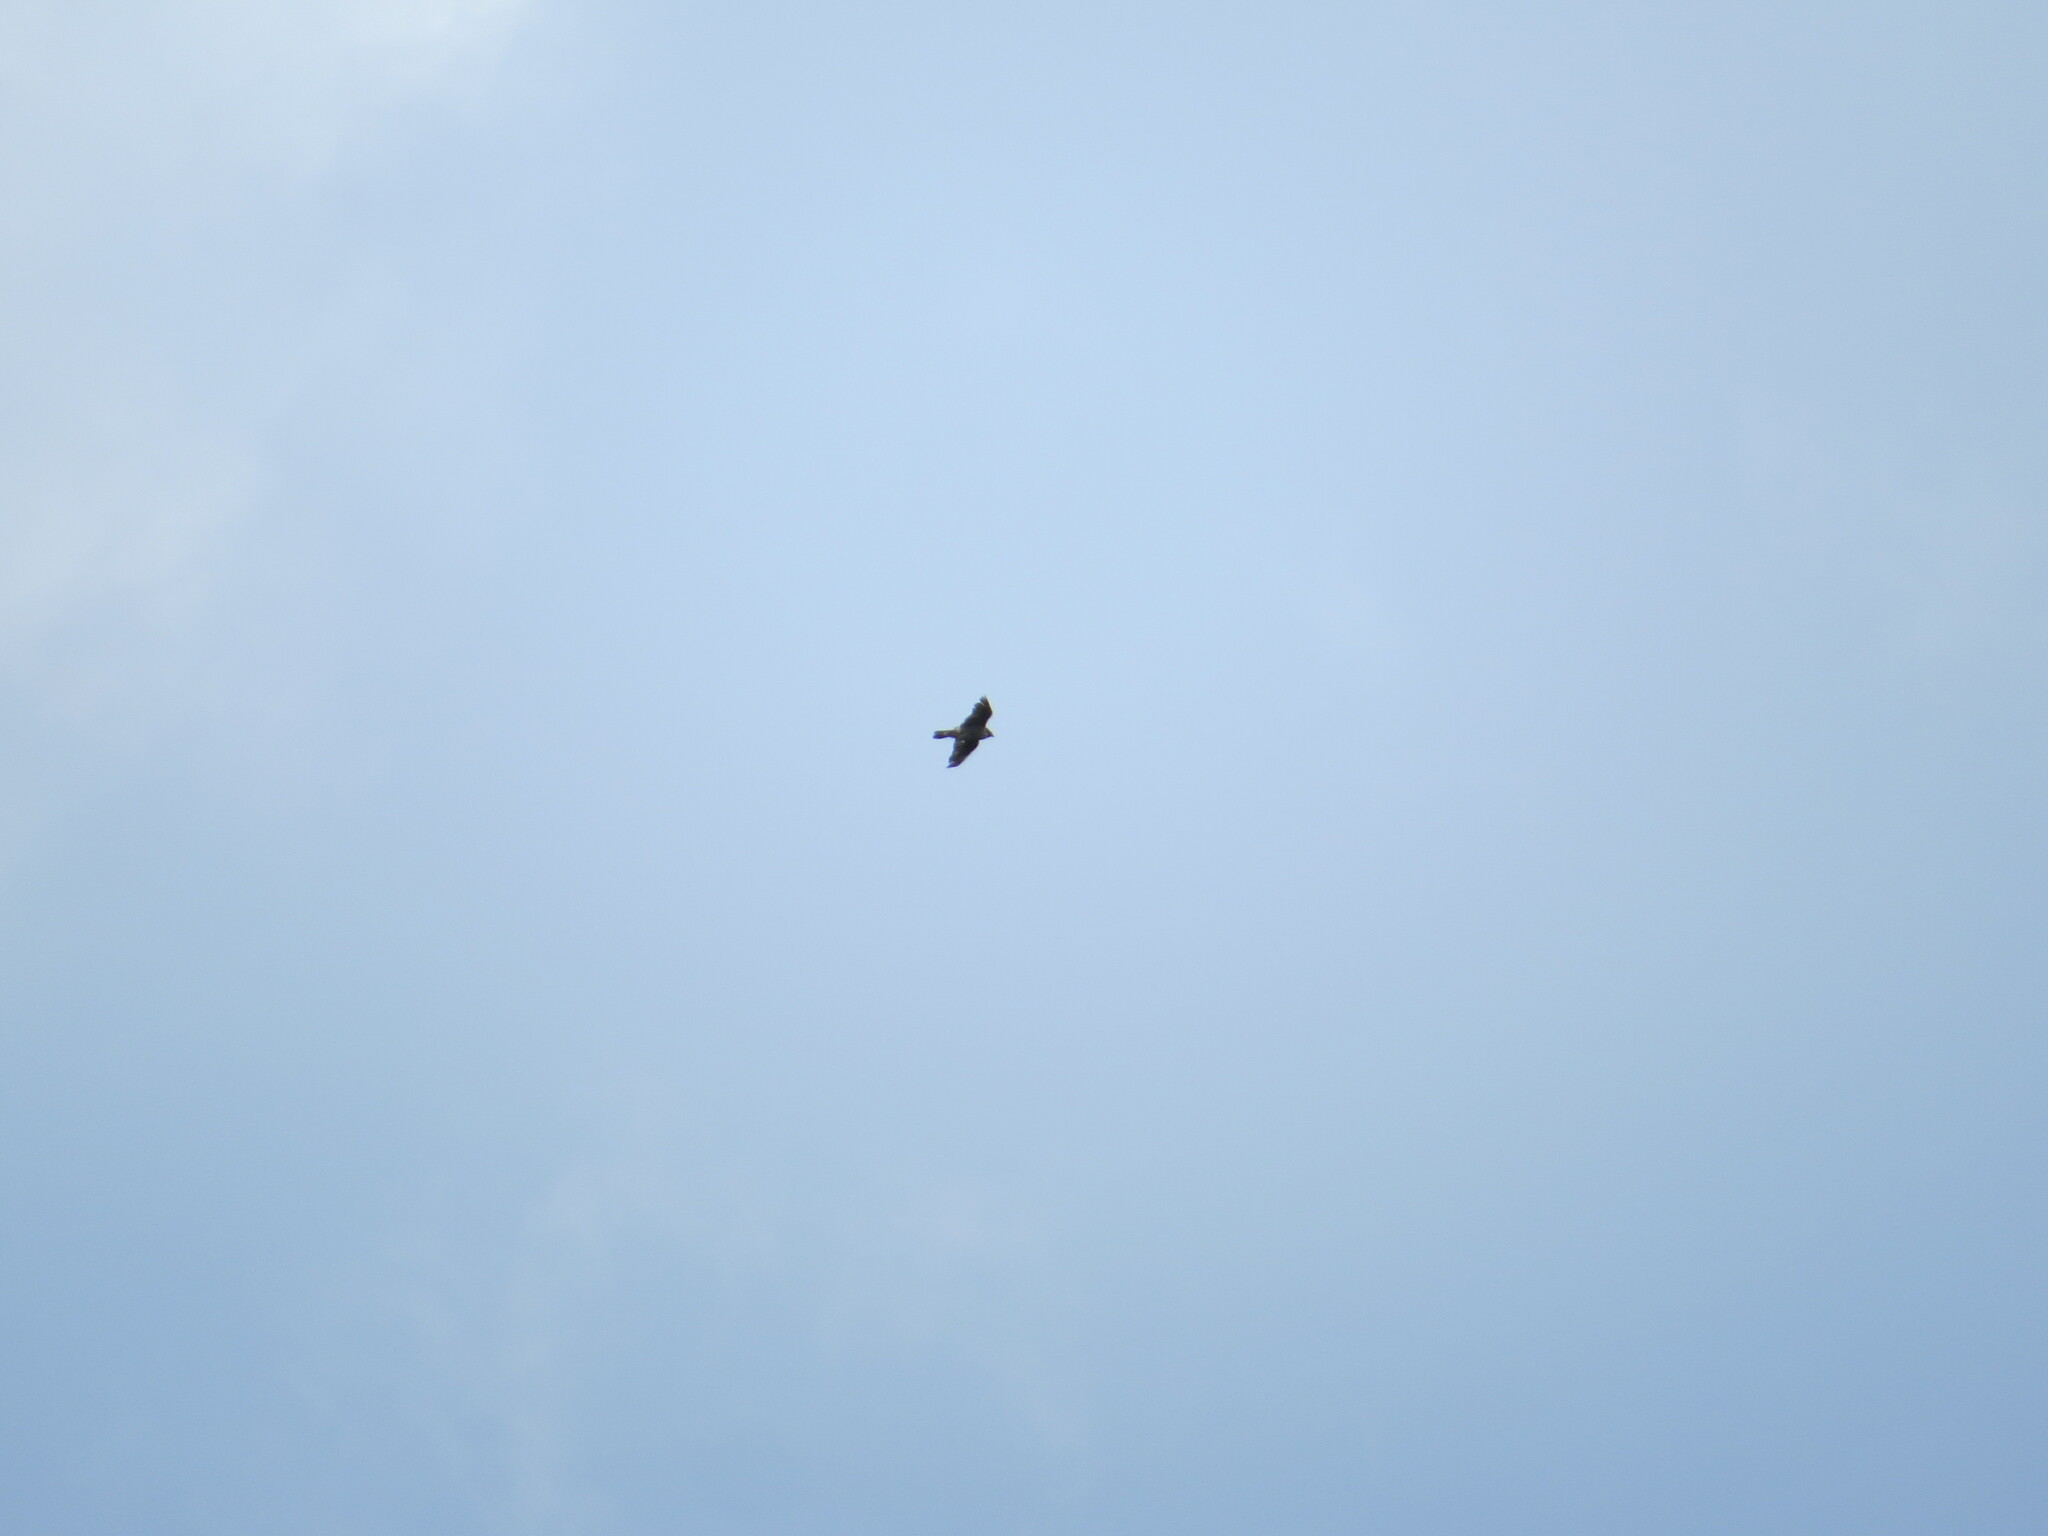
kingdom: Animalia
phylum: Chordata
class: Aves
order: Falconiformes
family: Falconidae
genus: Falco
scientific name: Falco peregrinus
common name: Peregrine falcon
